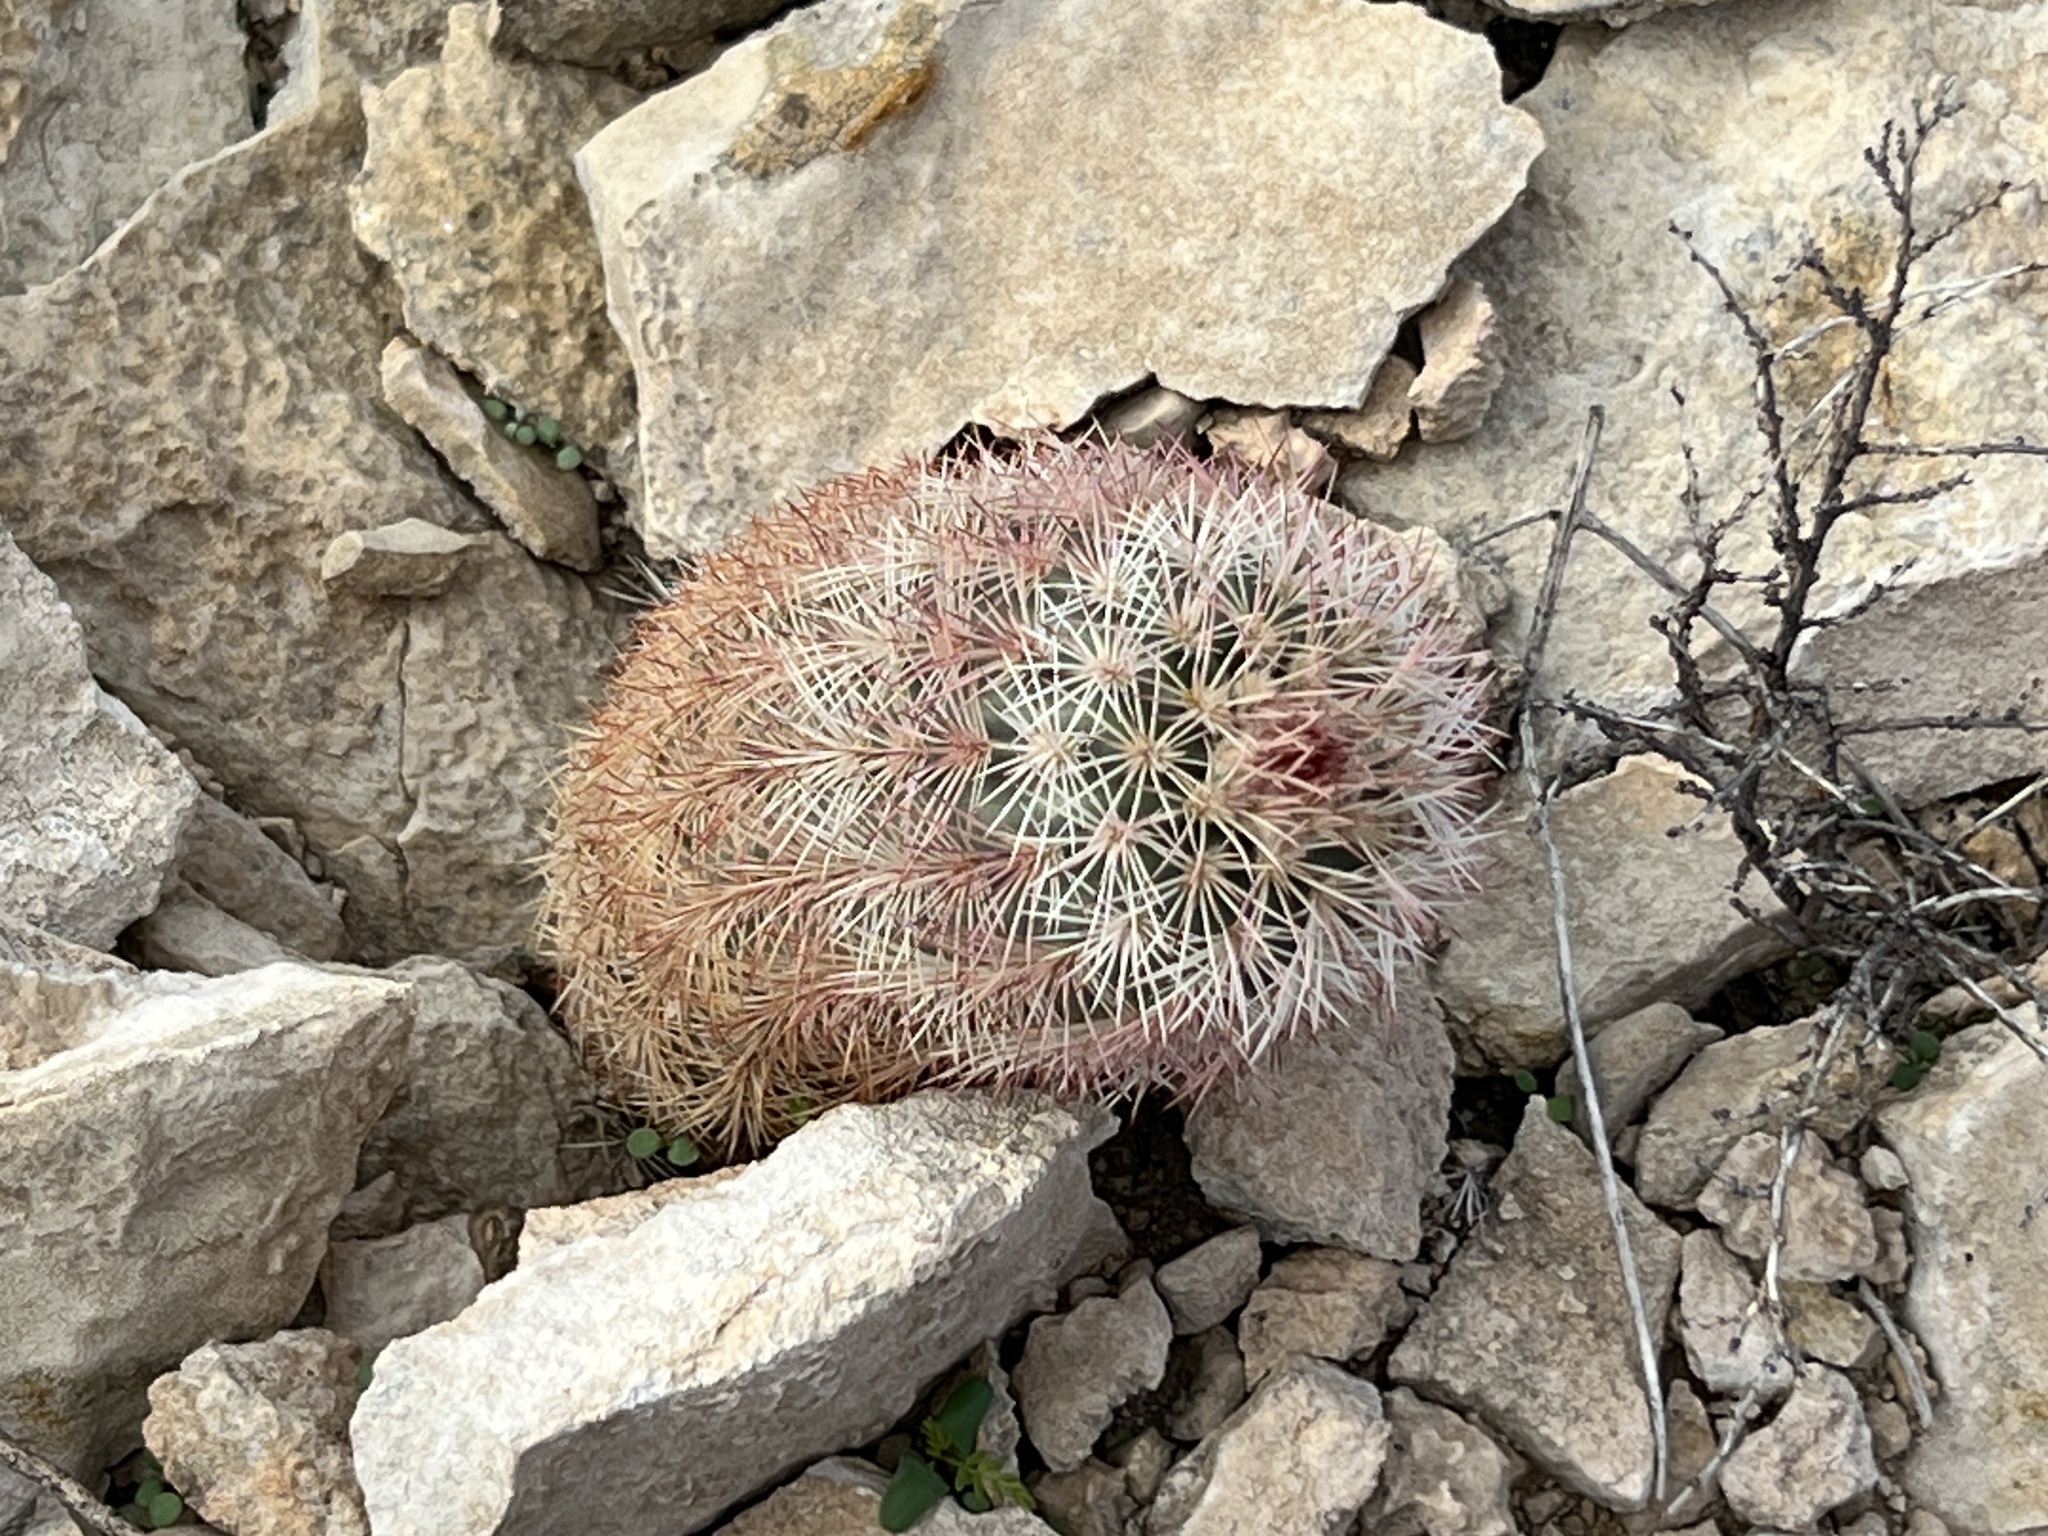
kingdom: Plantae
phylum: Tracheophyta
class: Magnoliopsida
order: Caryophyllales
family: Cactaceae
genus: Echinocereus
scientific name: Echinocereus dasyacanthus
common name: Spiny hedgehog cactus
